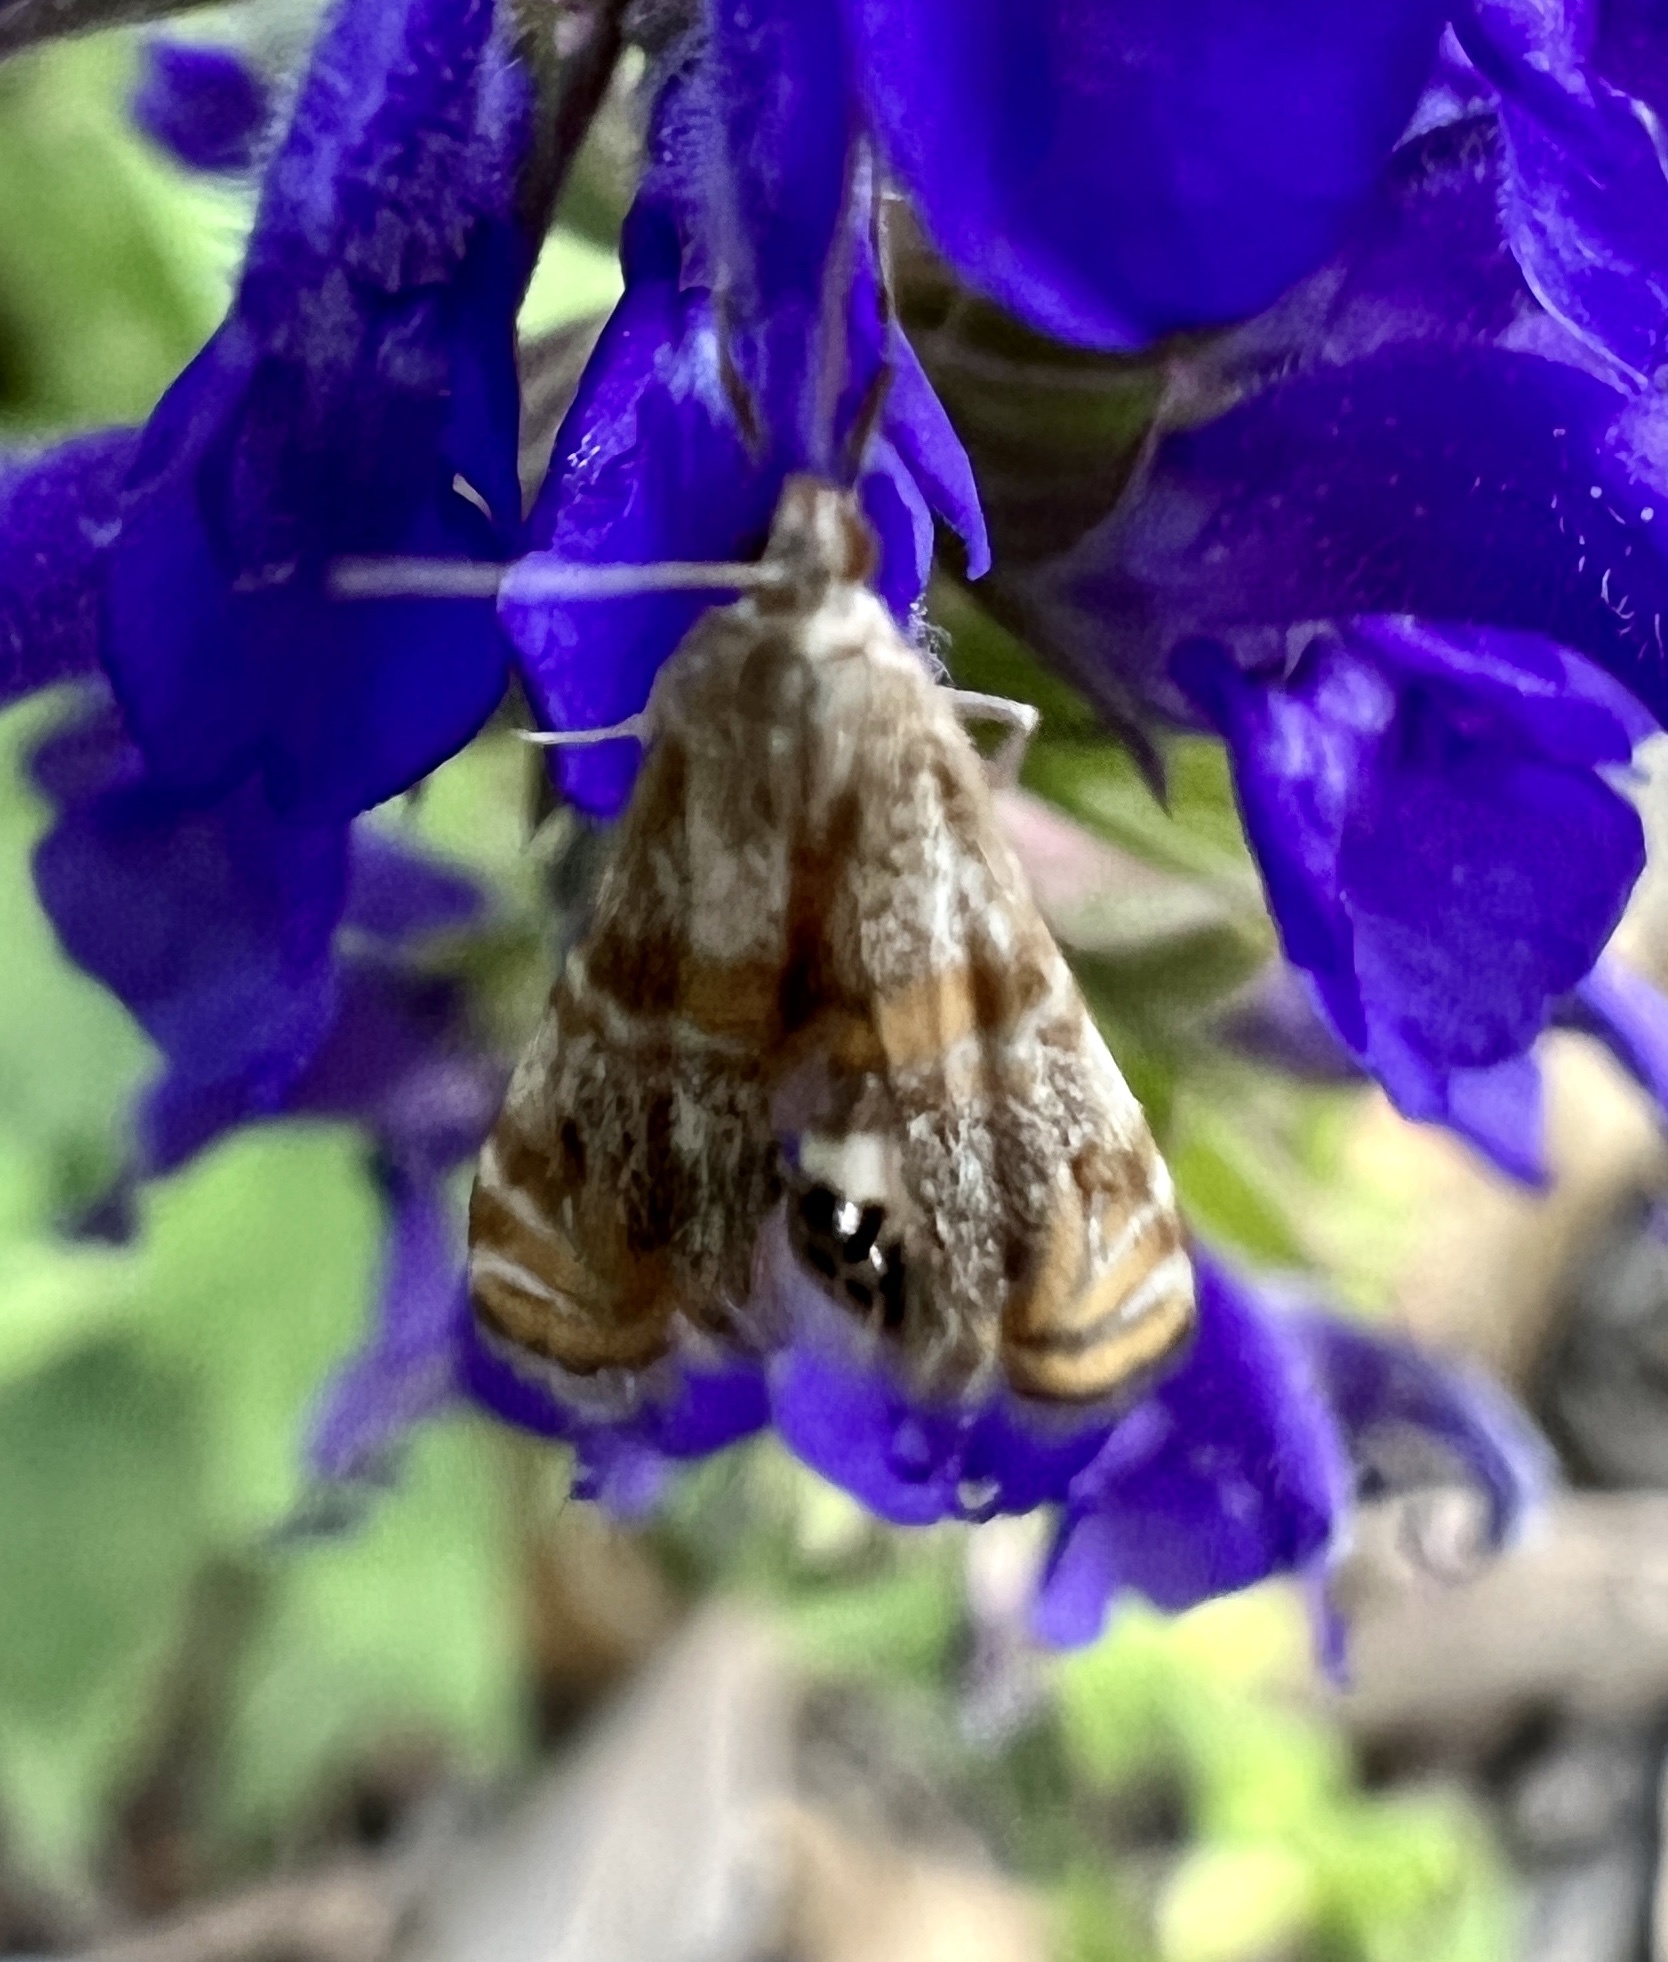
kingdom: Animalia
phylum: Arthropoda
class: Insecta
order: Lepidoptera
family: Crambidae
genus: Petrophila
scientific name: Petrophila bifascialis
